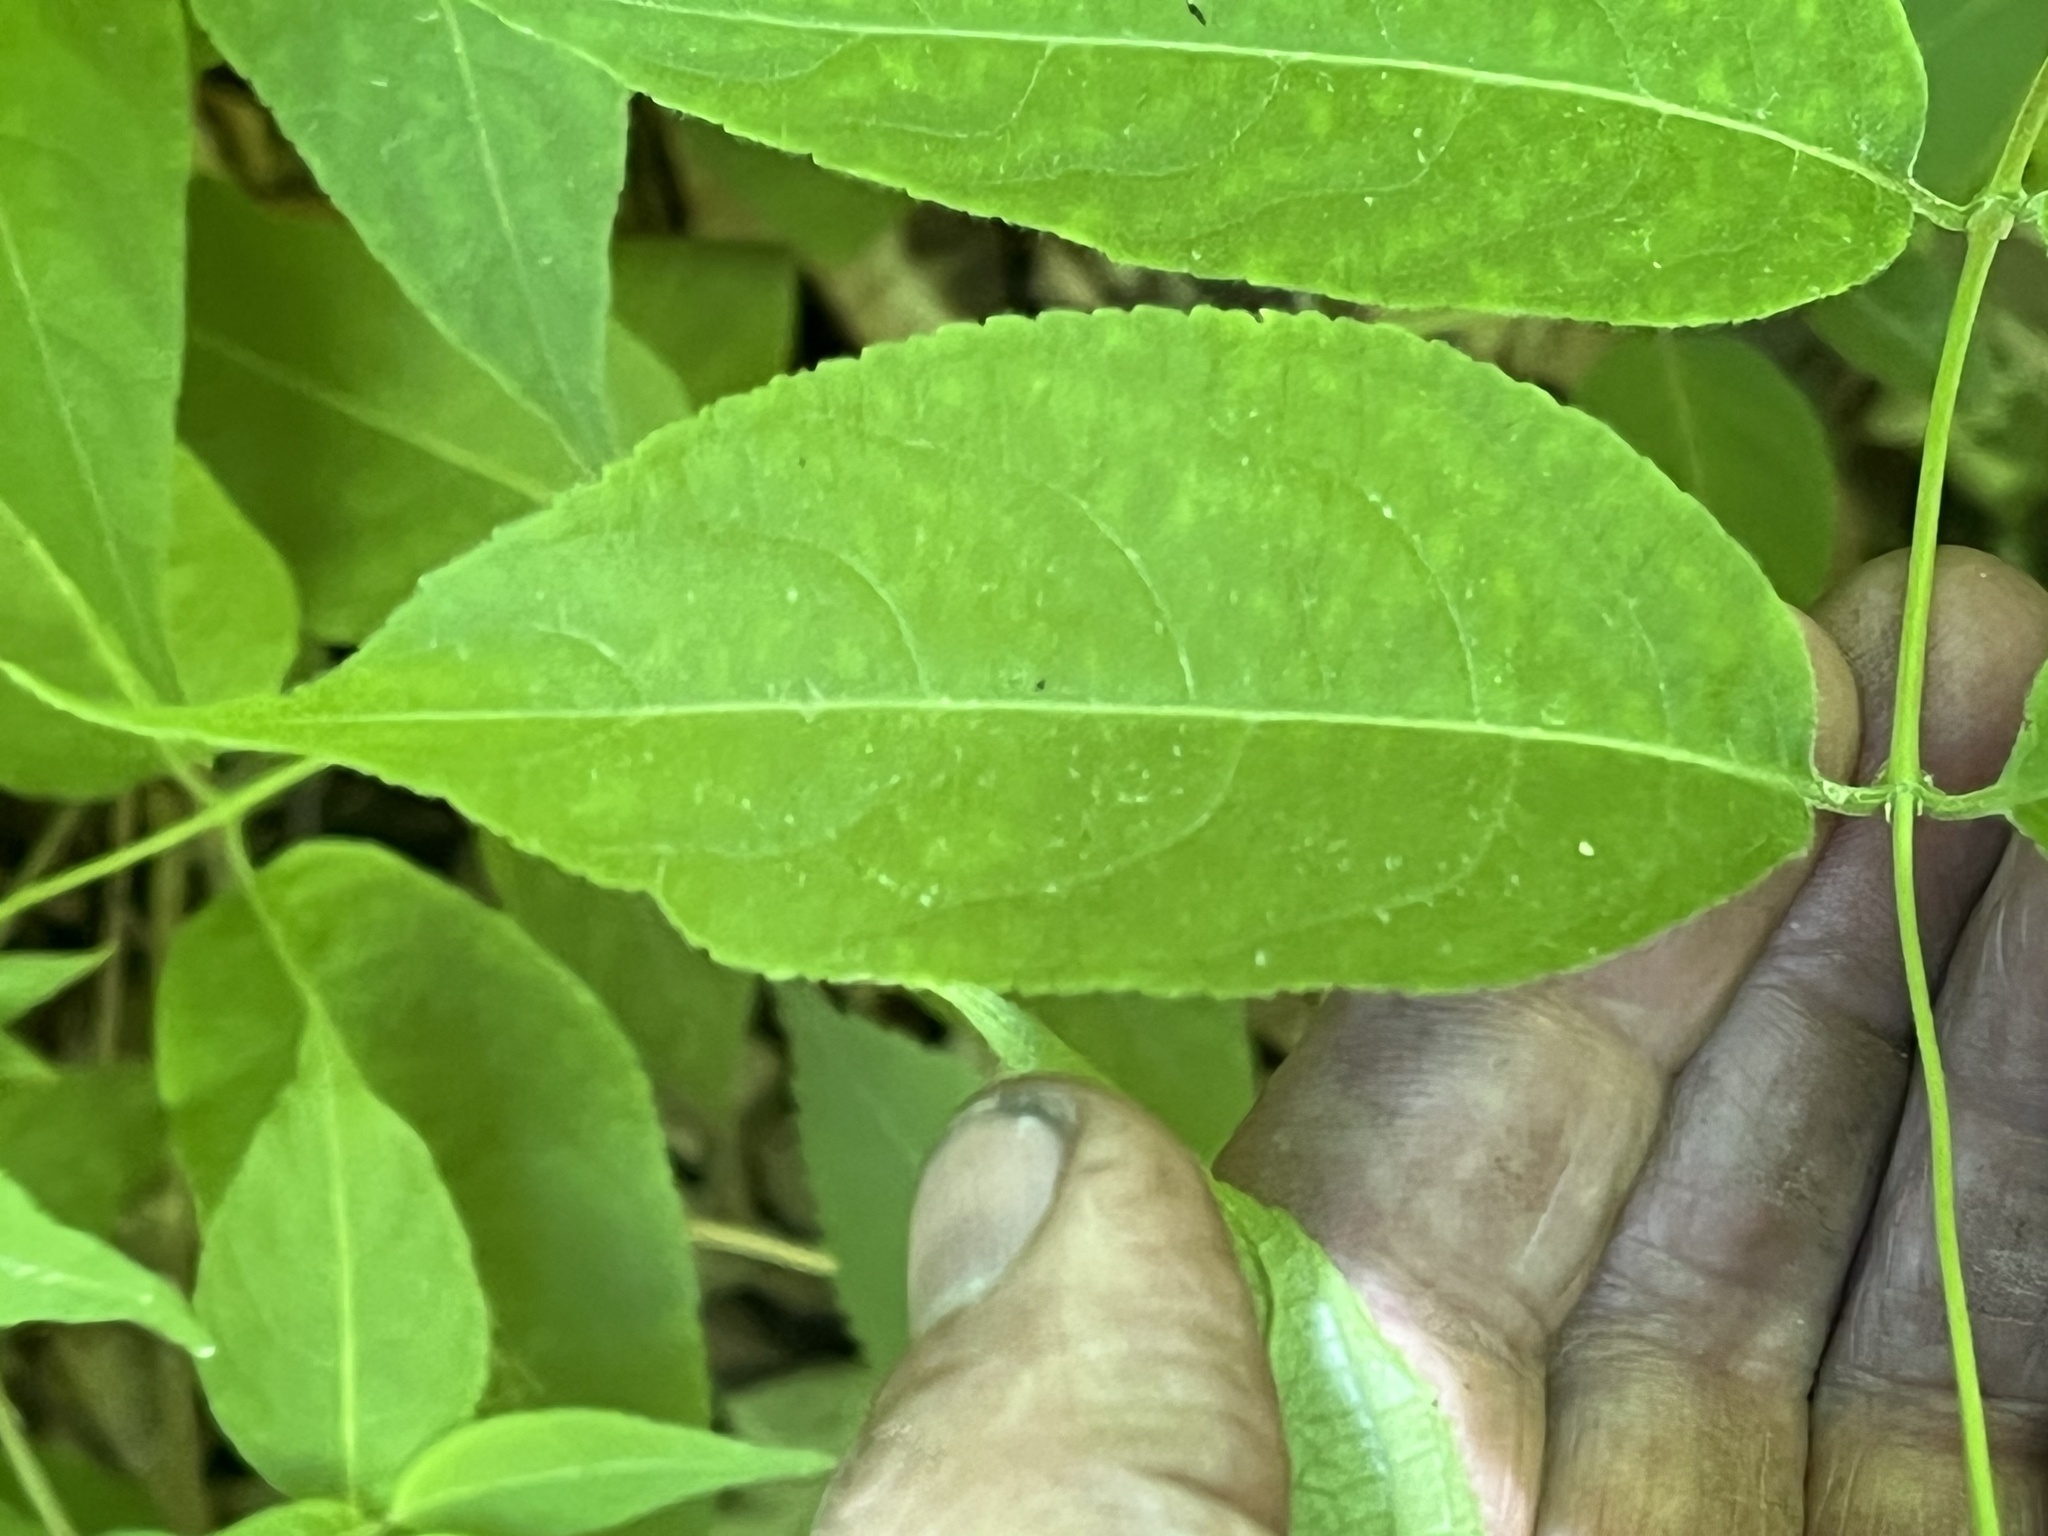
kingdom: Plantae
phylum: Tracheophyta
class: Magnoliopsida
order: Dipsacales
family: Caprifoliaceae
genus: Diervilla
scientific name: Diervilla lonicera
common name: Bush-honeysuckle
